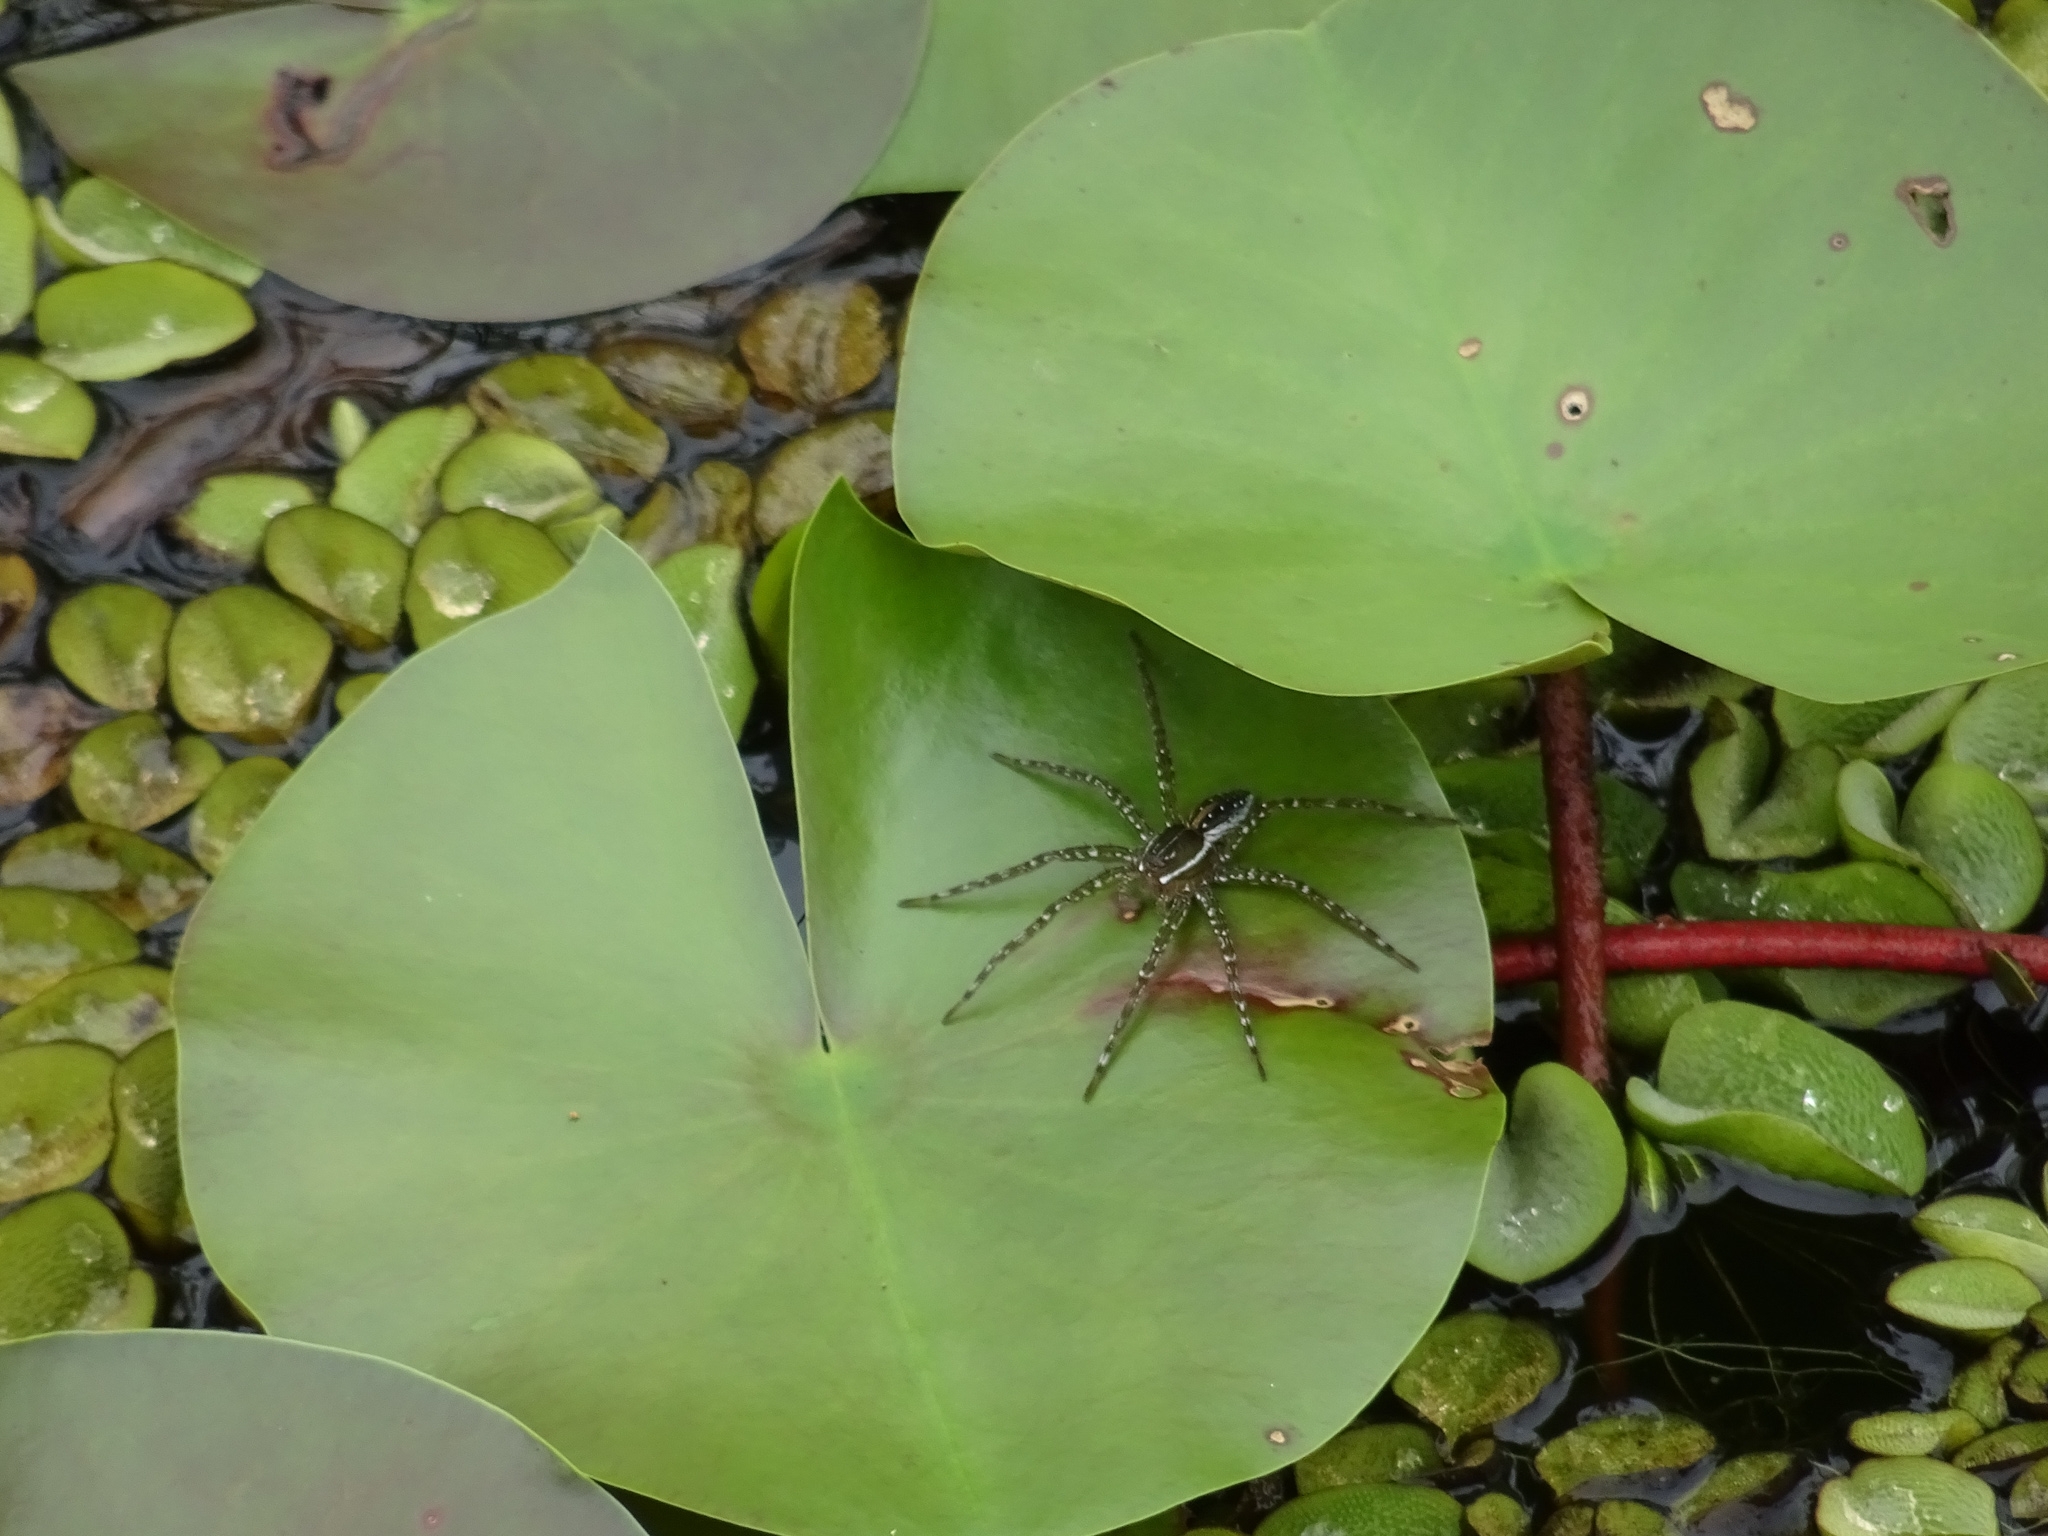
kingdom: Animalia
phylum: Arthropoda
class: Arachnida
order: Araneae
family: Pisauridae
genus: Dolomedes
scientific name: Dolomedes triton
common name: Six-spotted fishing spider
